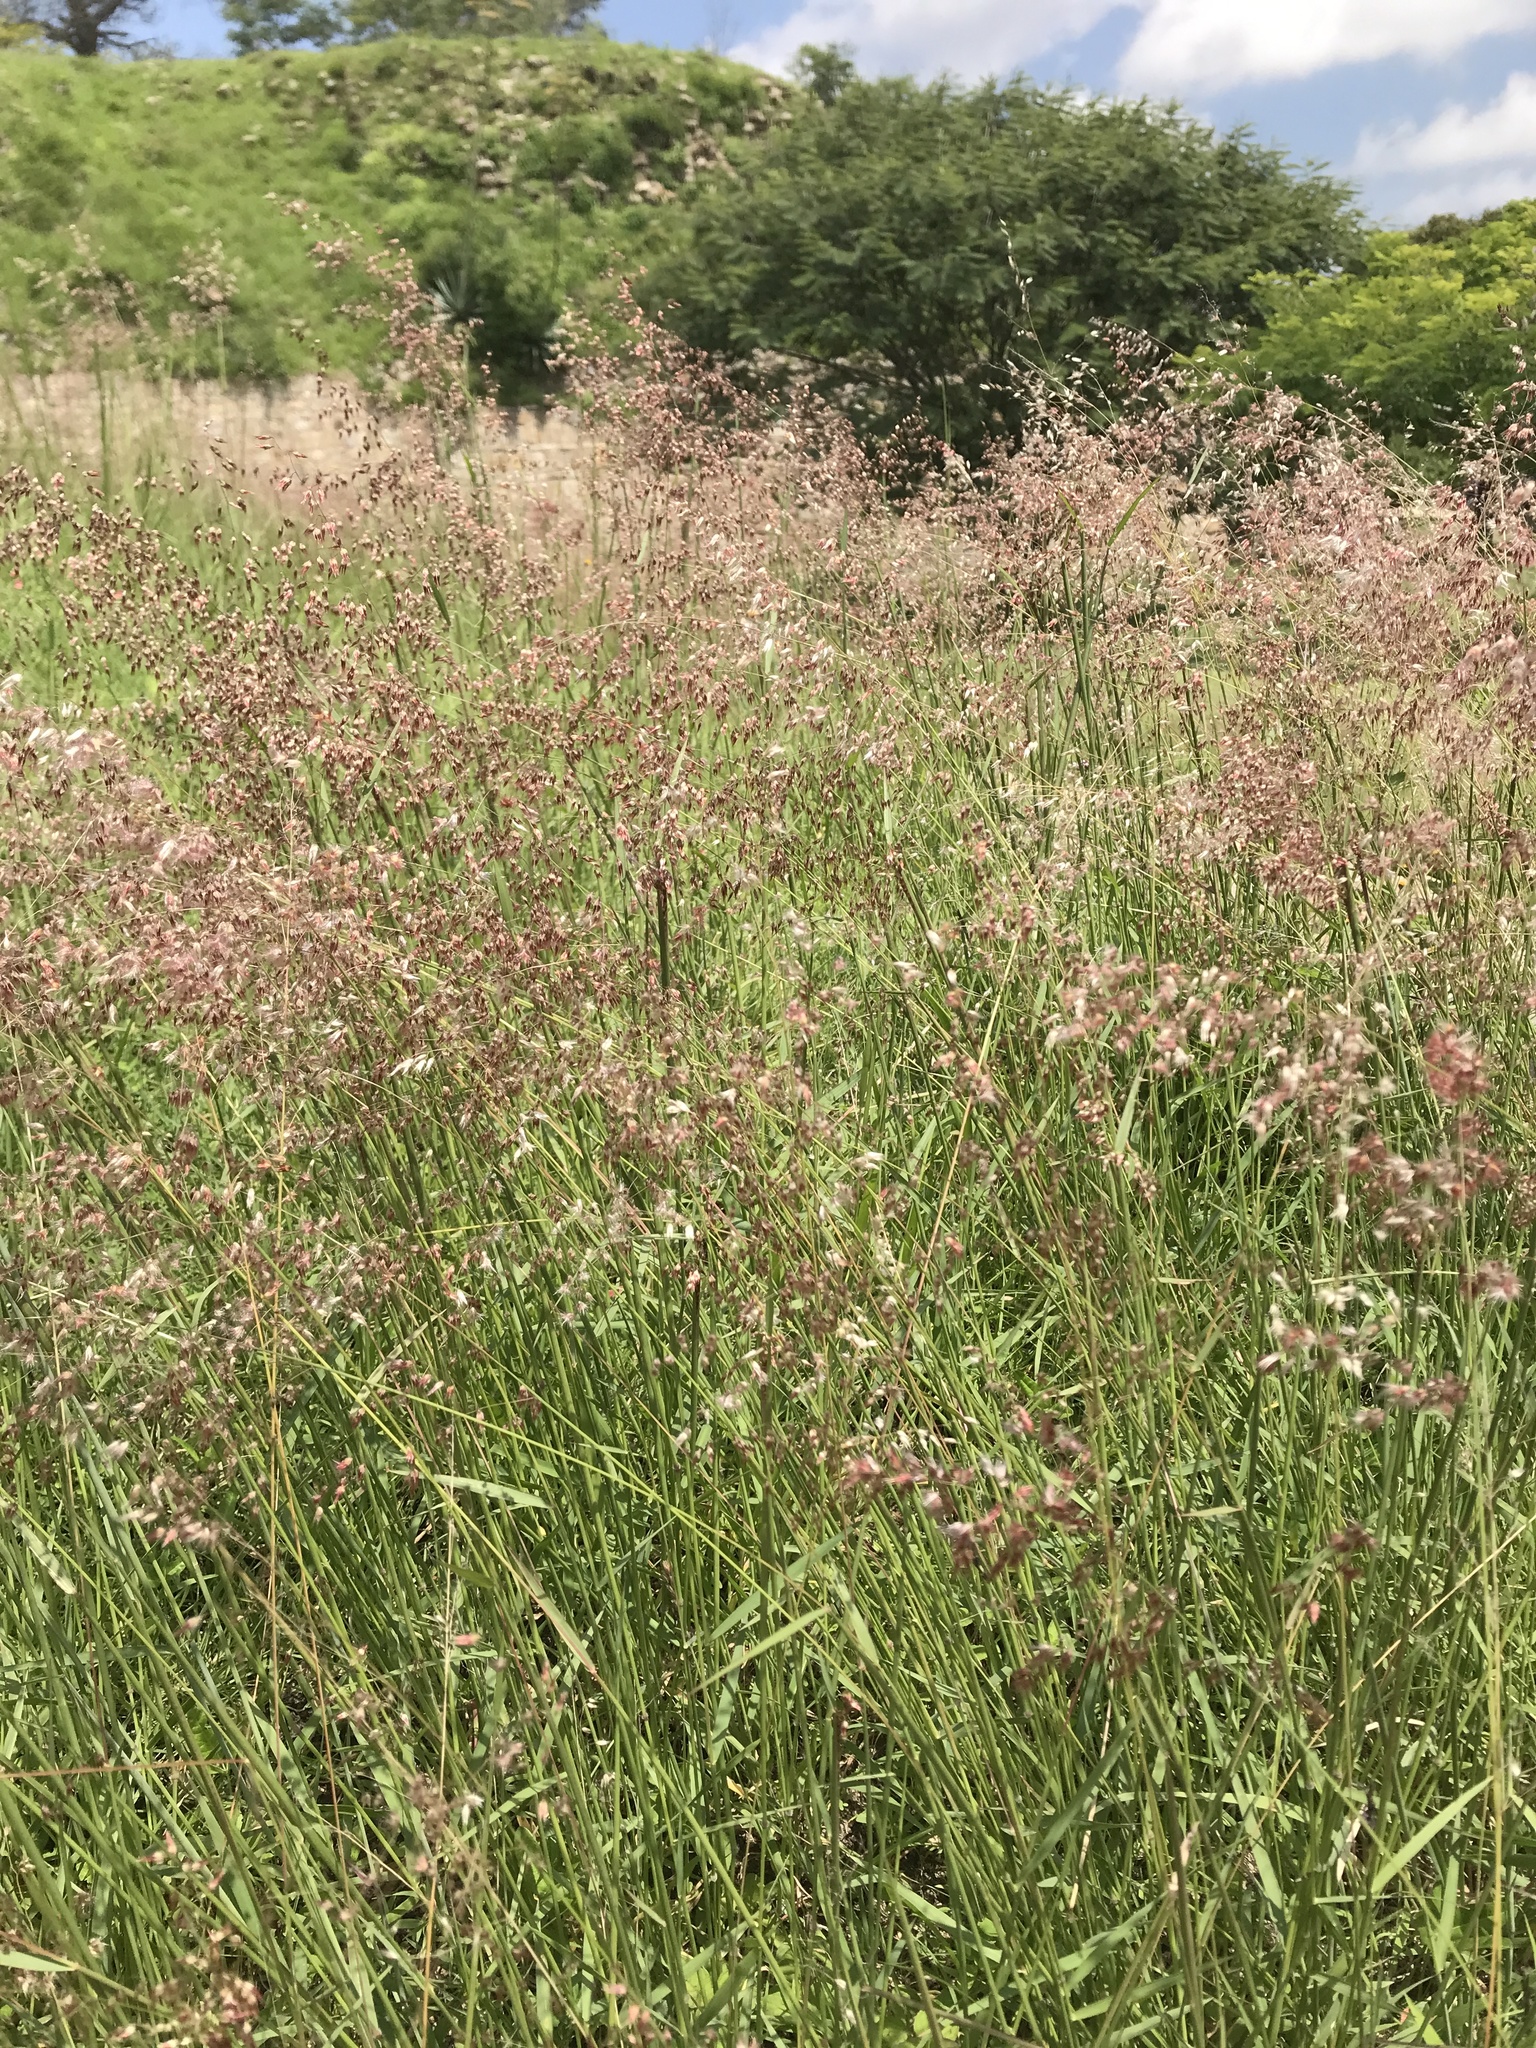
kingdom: Plantae
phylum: Tracheophyta
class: Liliopsida
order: Poales
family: Poaceae
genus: Melinis
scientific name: Melinis repens
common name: Rose natal grass
